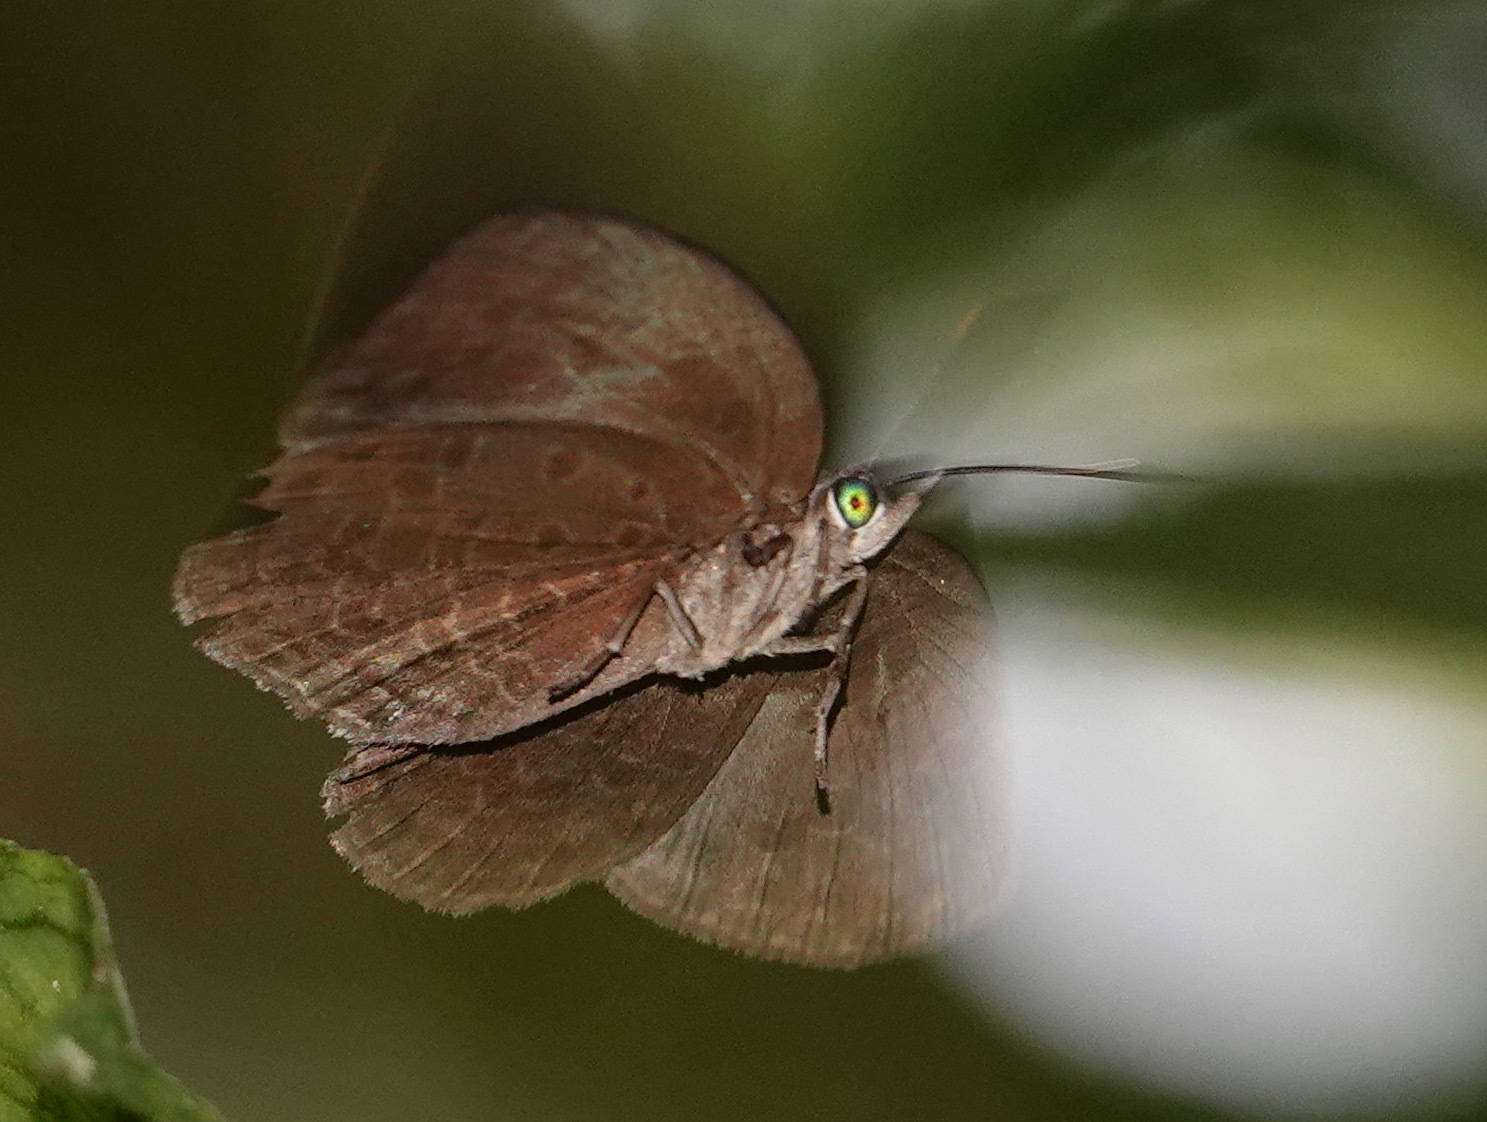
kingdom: Animalia
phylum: Arthropoda
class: Insecta
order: Lepidoptera
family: Lycaenidae
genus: Arhopala
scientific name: Arhopala muta
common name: Mutal oakblue
